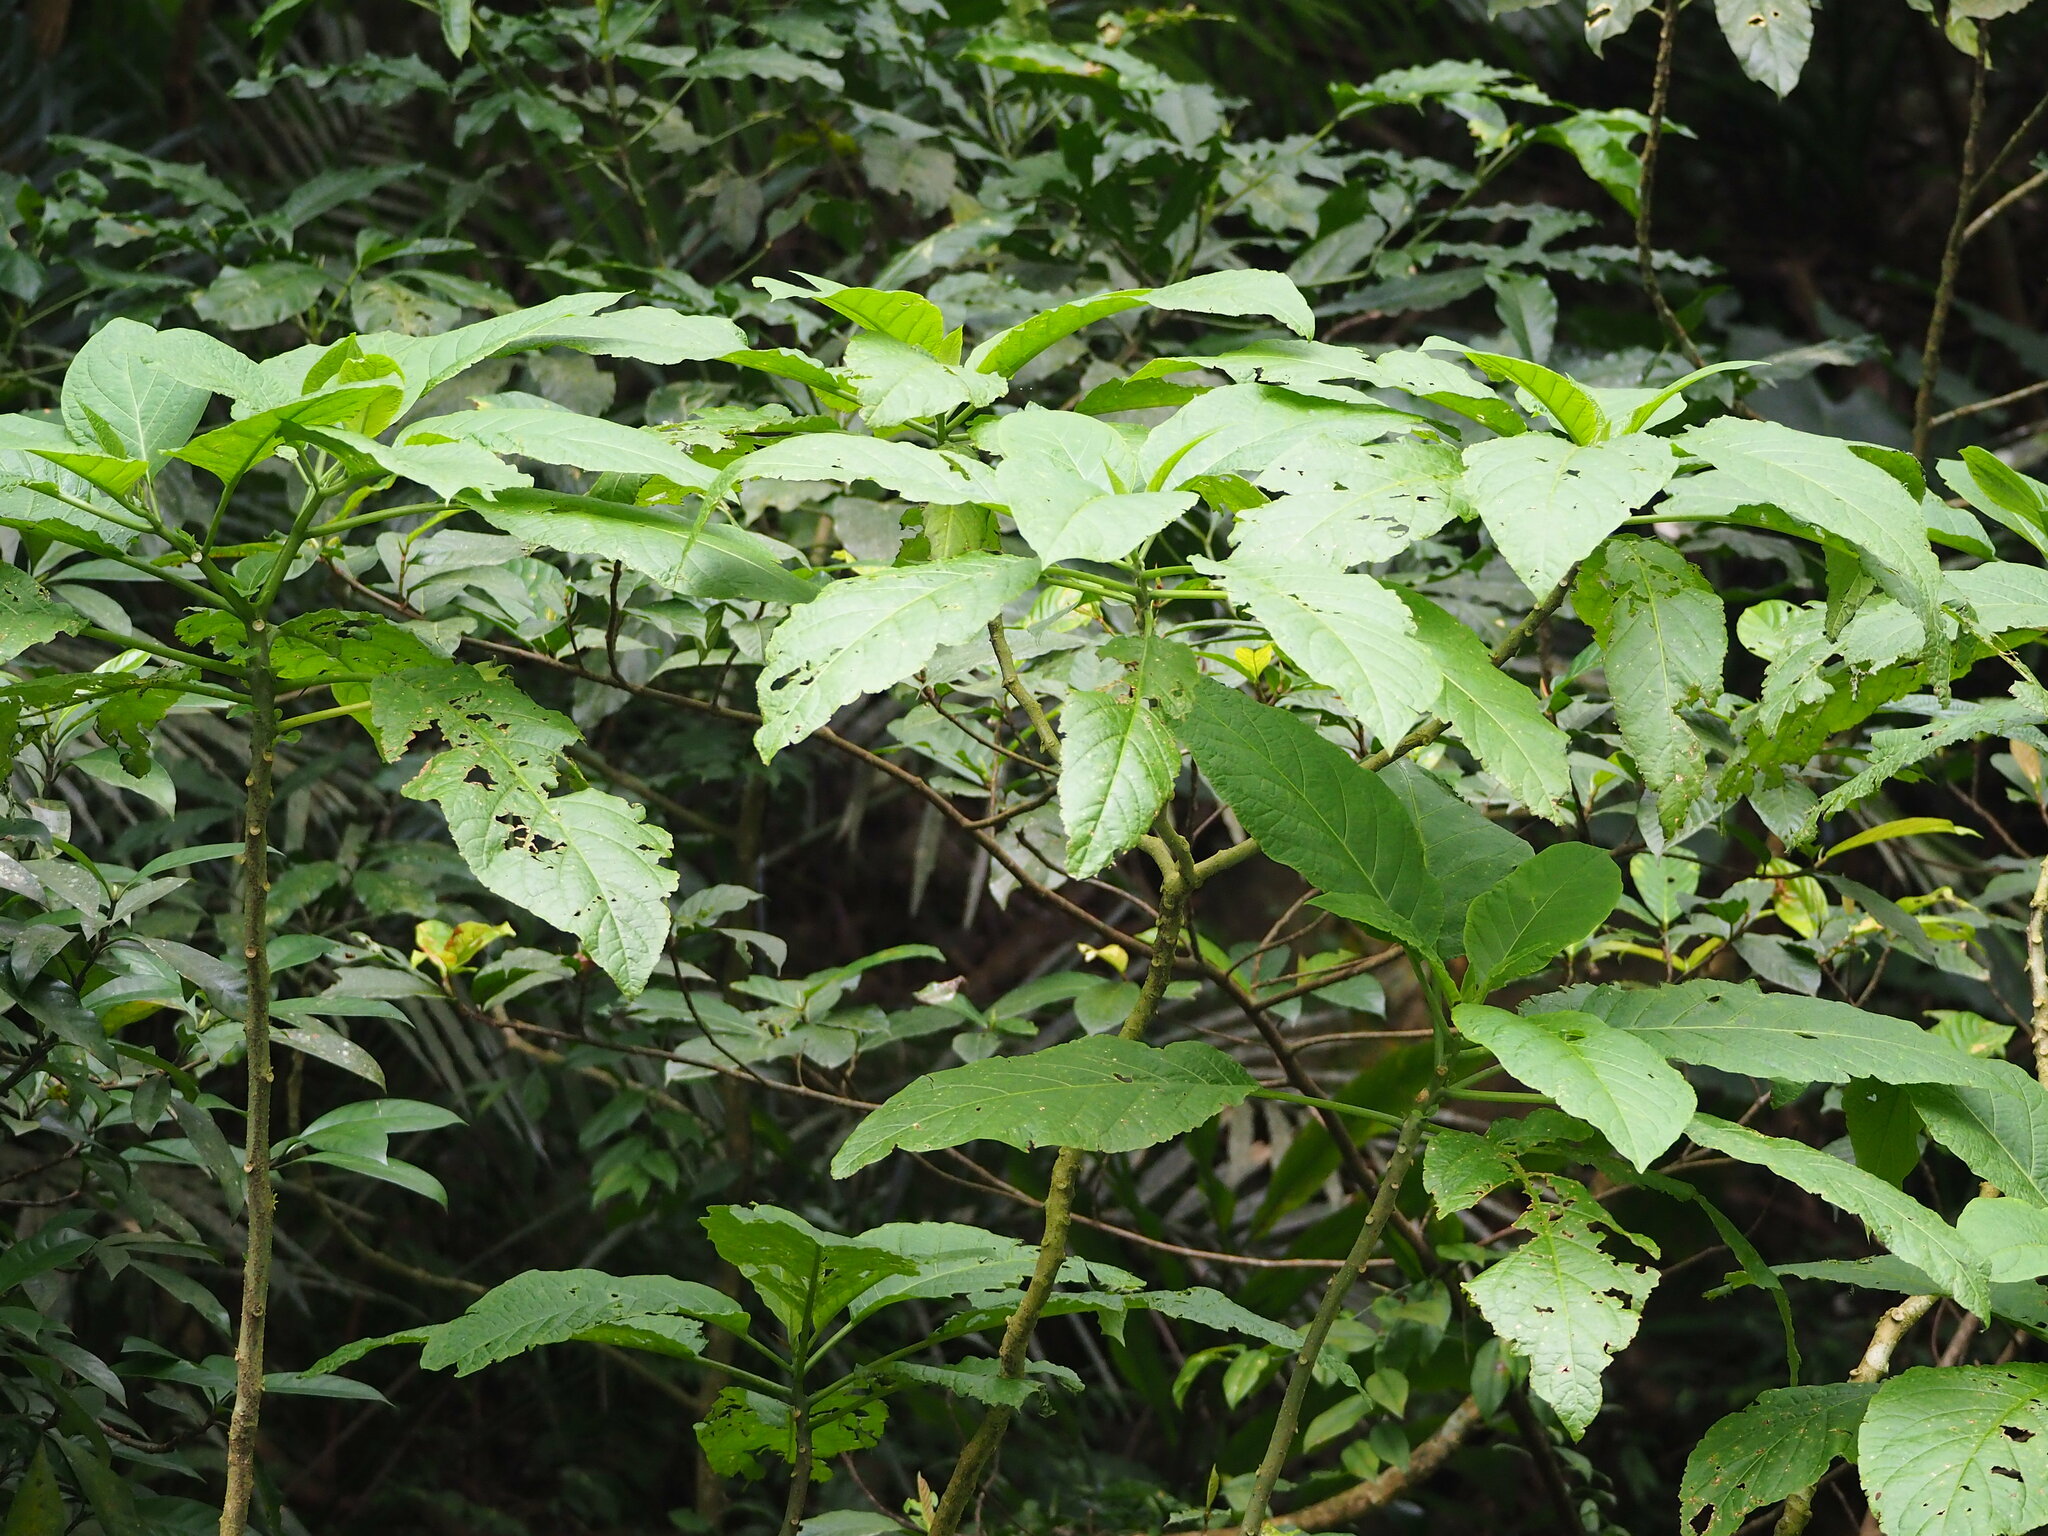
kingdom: Plantae
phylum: Tracheophyta
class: Magnoliopsida
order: Solanales
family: Solanaceae
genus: Brugmansia
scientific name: Brugmansia suaveolens
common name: Angel's tears
